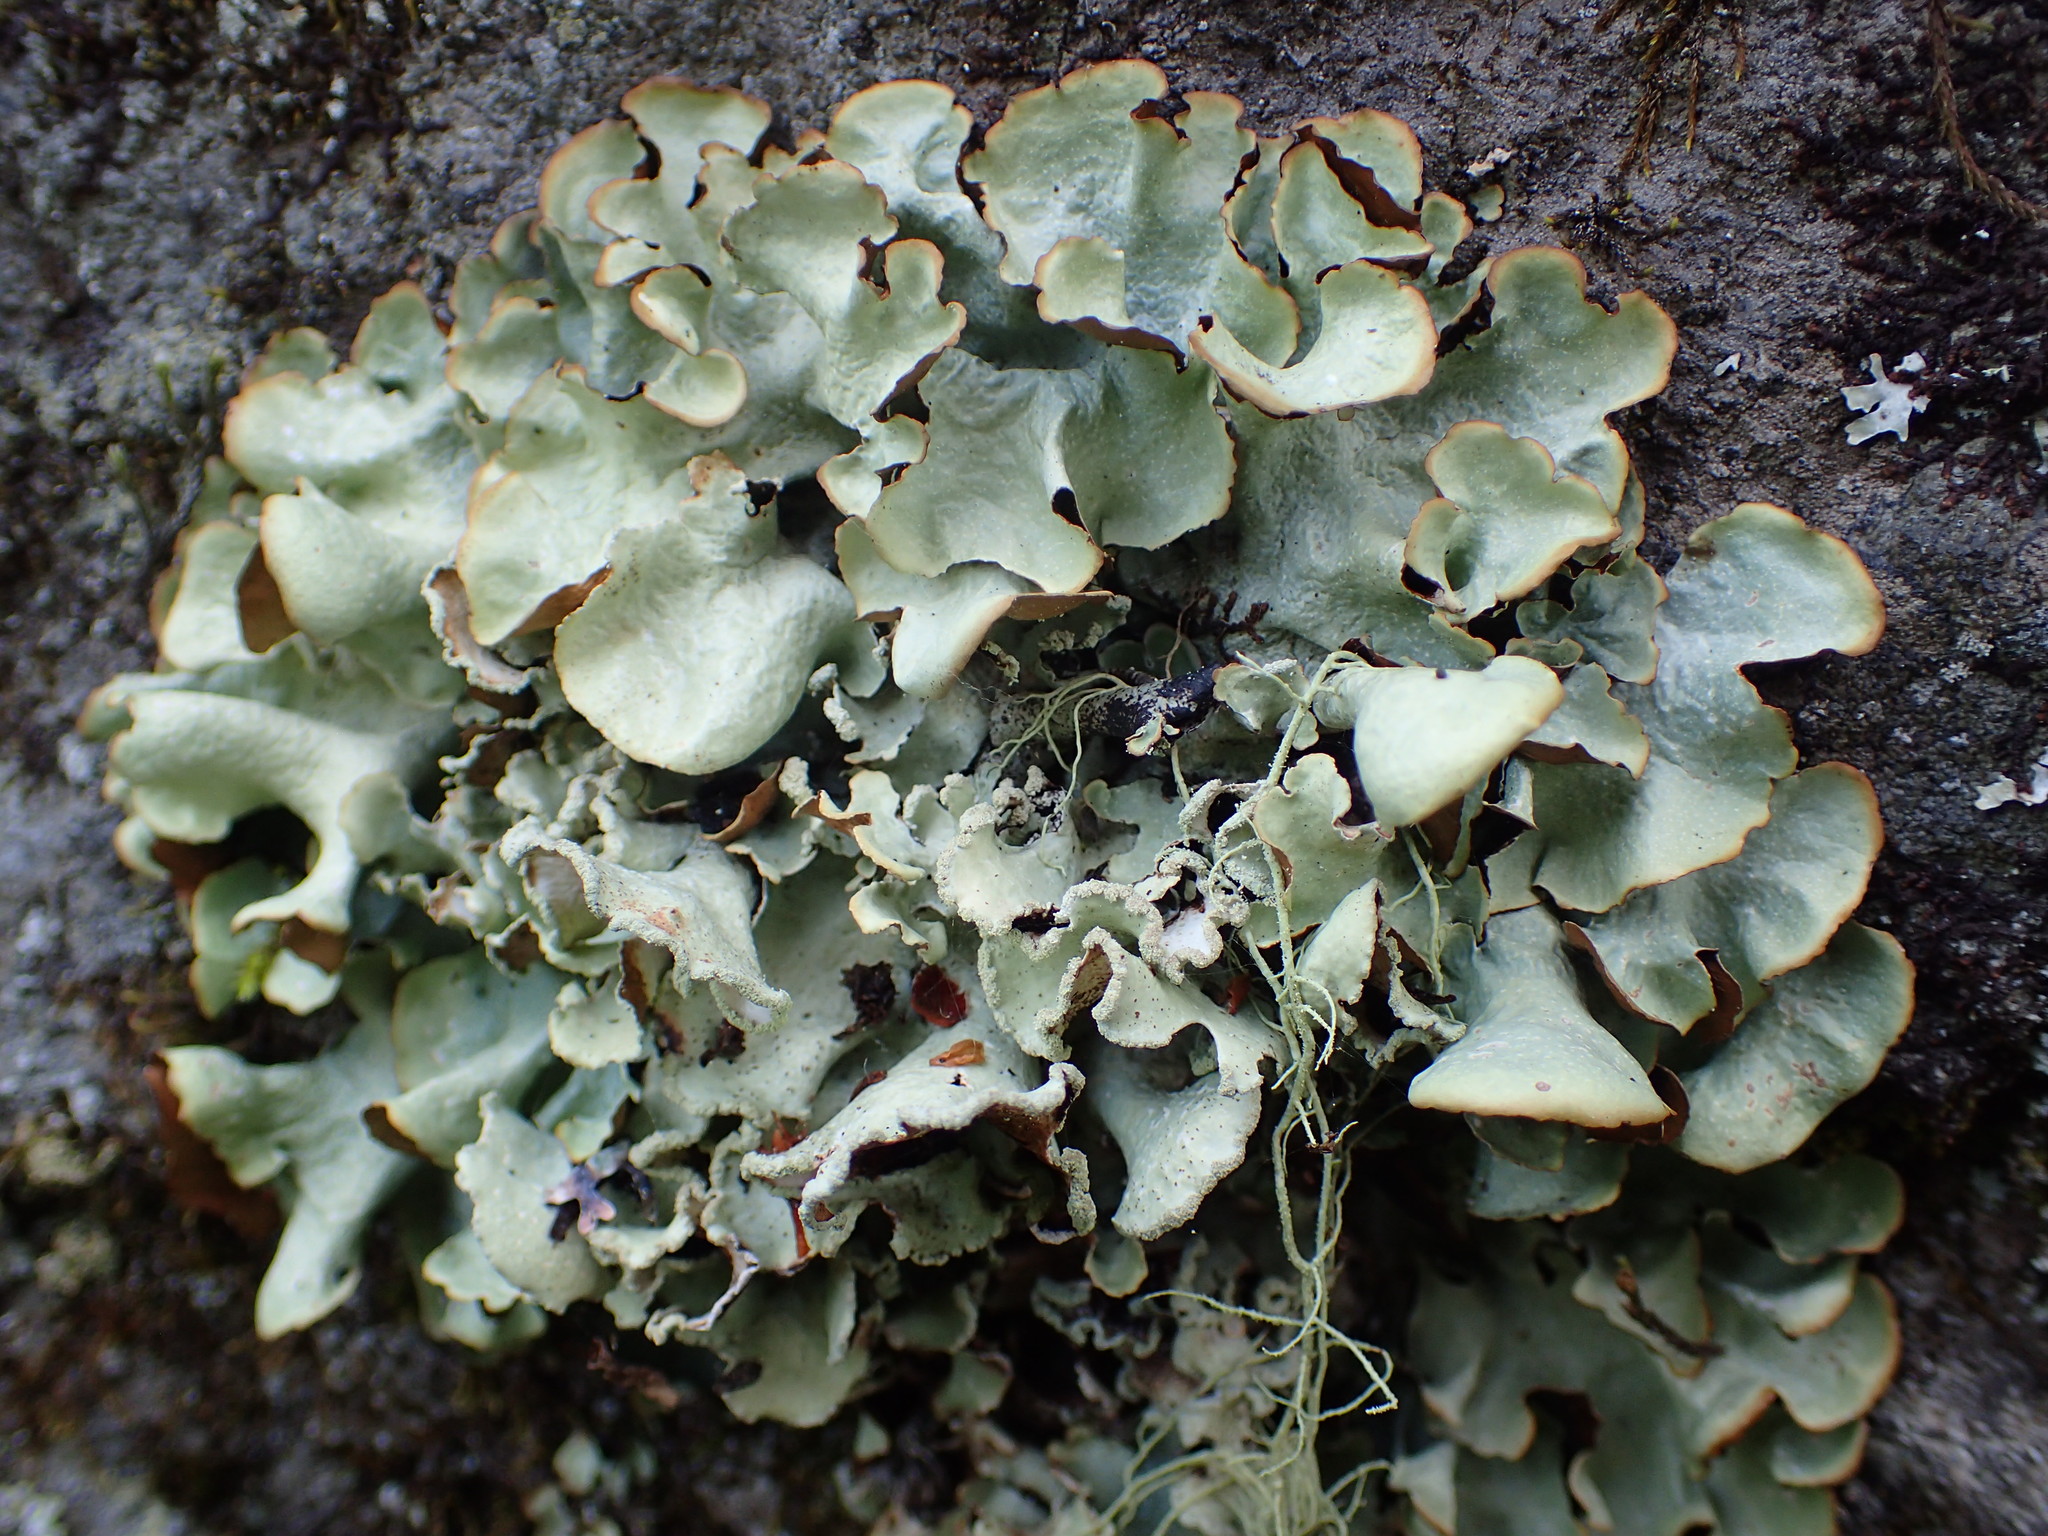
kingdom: Fungi
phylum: Ascomycota
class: Lecanoromycetes
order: Lecanorales
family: Parmeliaceae
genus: Cetrelia
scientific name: Cetrelia olivetorum
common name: Sea storm lichen
